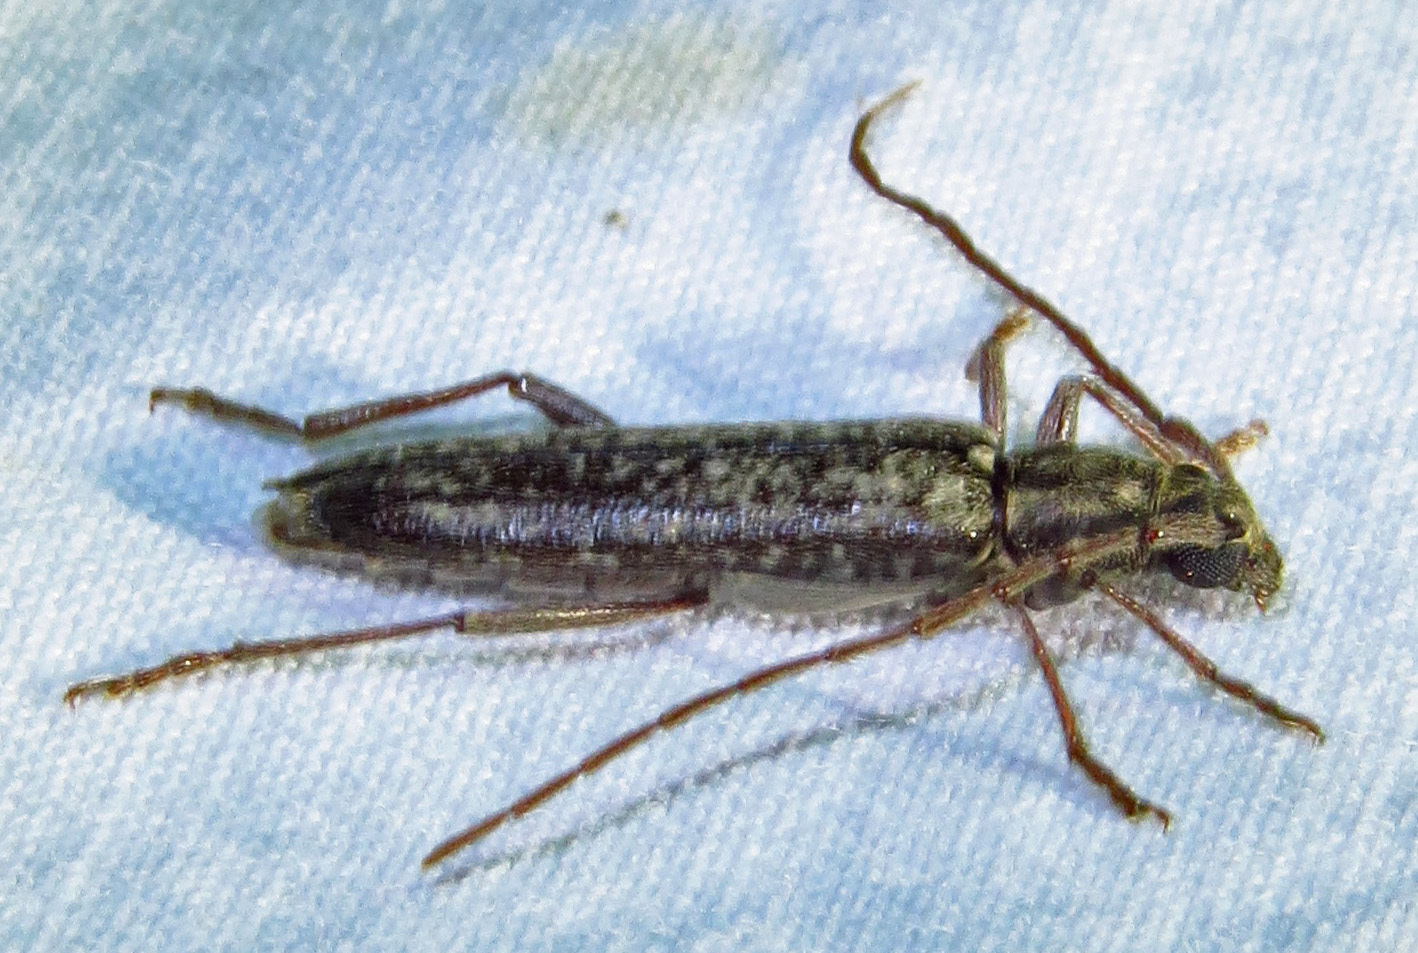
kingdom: Animalia
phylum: Arthropoda
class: Insecta
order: Coleoptera
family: Cerambycidae
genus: Anelaphus
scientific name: Anelaphus villosus
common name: Twig pruner
